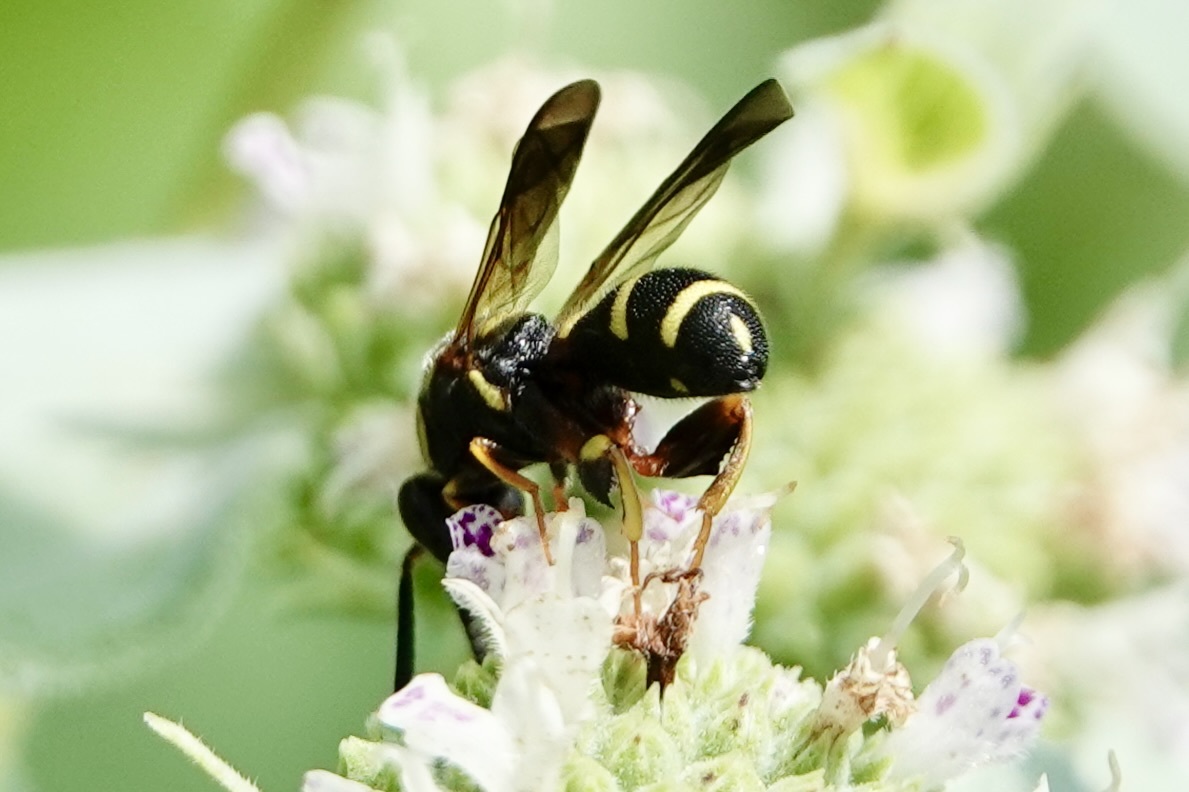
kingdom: Animalia
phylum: Arthropoda
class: Insecta
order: Hymenoptera
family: Leucospidae
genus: Leucospis
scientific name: Leucospis affinis
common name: Wasp
